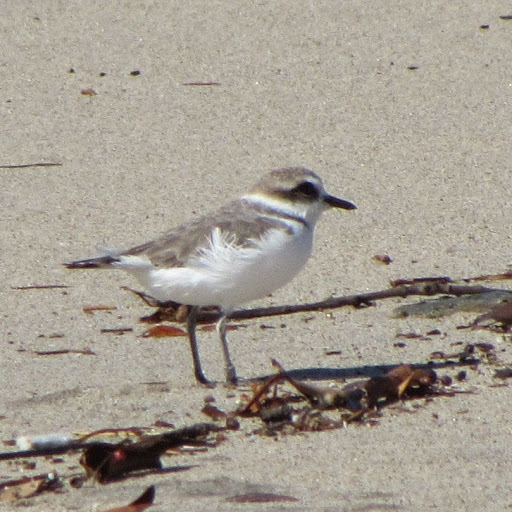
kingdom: Animalia
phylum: Chordata
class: Aves
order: Charadriiformes
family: Charadriidae
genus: Anarhynchus
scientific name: Anarhynchus
